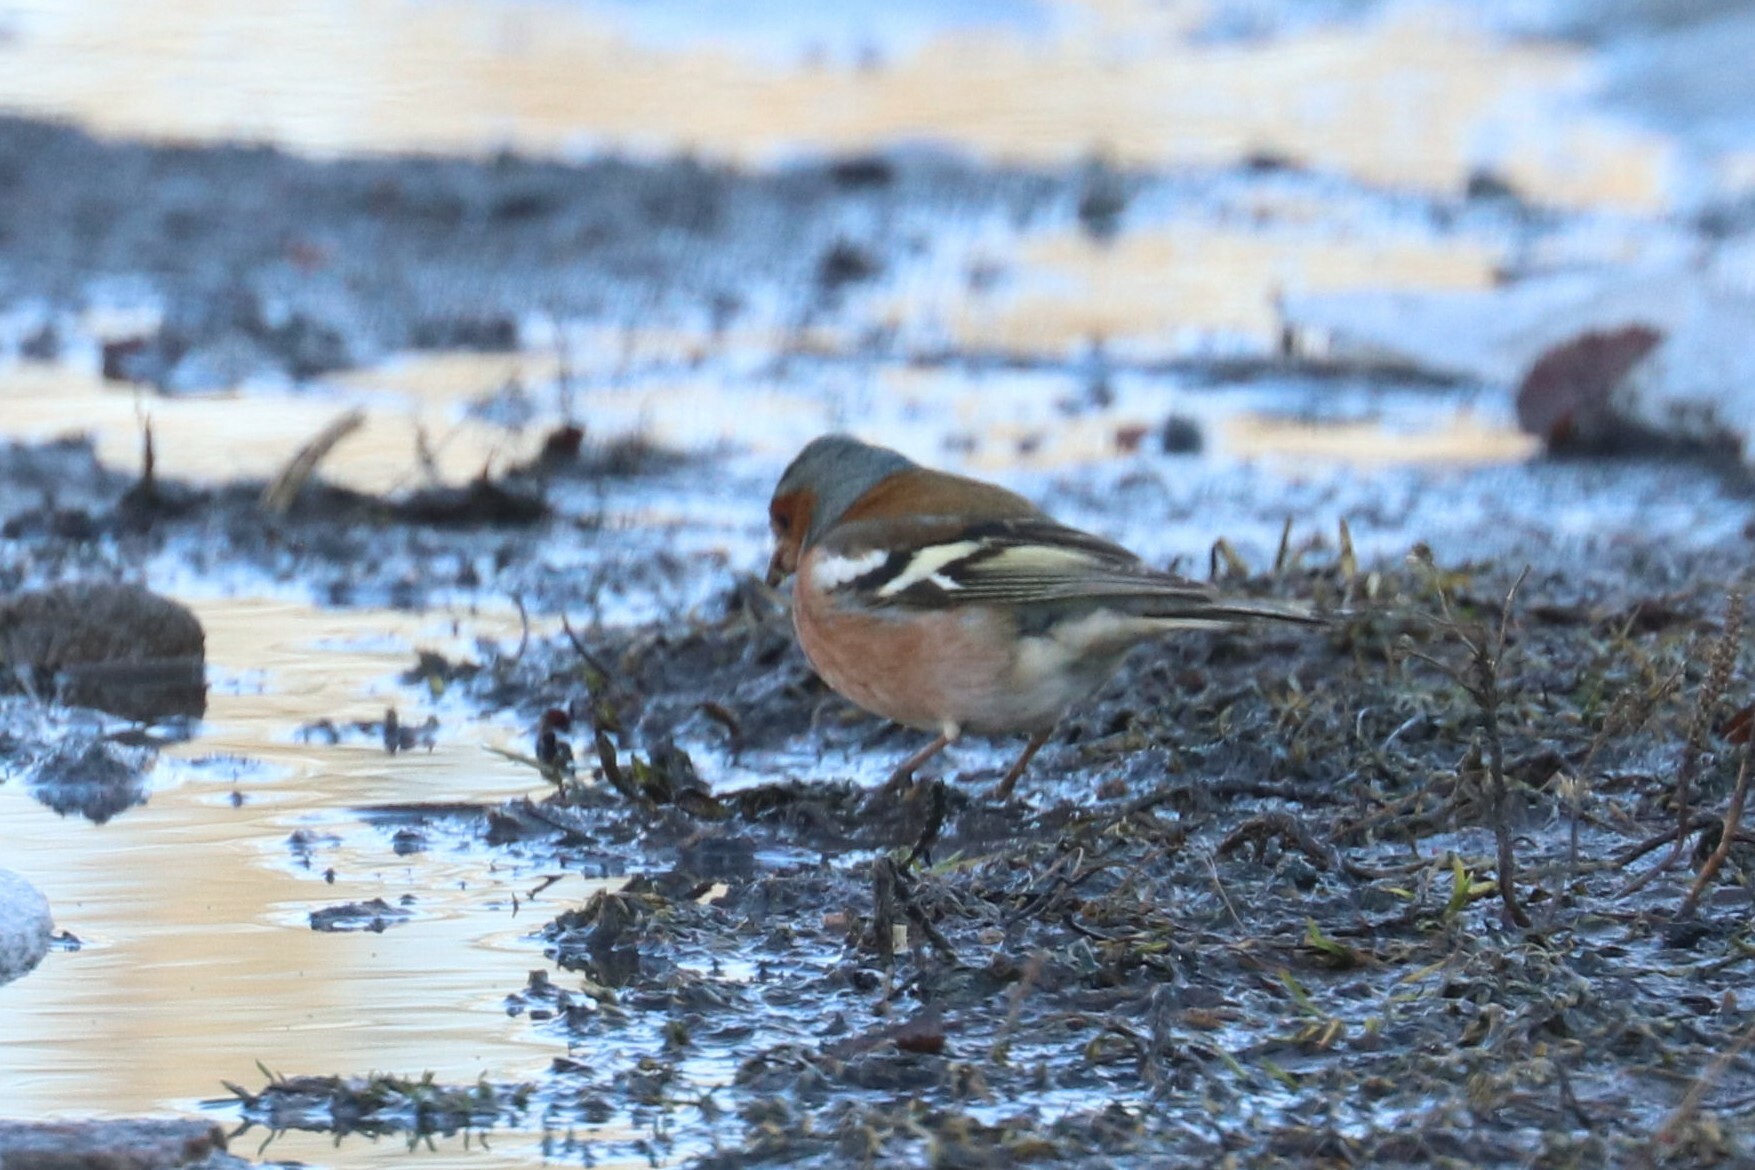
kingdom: Animalia
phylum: Chordata
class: Aves
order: Passeriformes
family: Fringillidae
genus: Fringilla
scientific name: Fringilla coelebs
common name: Common chaffinch
